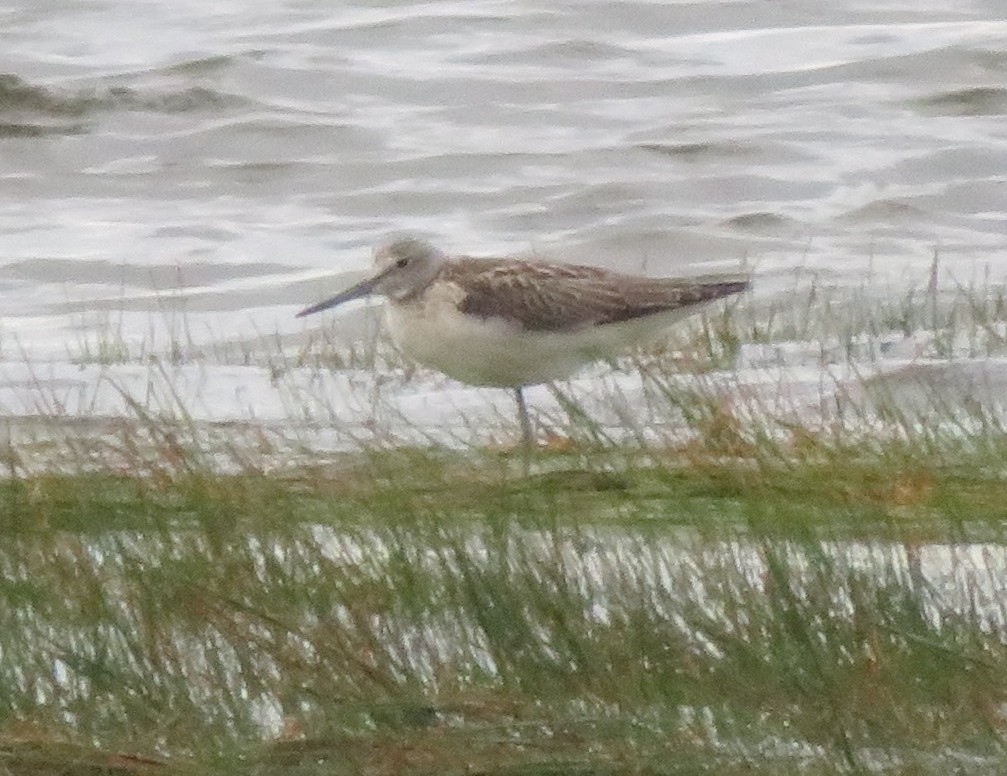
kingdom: Animalia
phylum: Chordata
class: Aves
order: Charadriiformes
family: Scolopacidae
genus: Tringa
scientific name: Tringa nebularia
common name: Common greenshank
